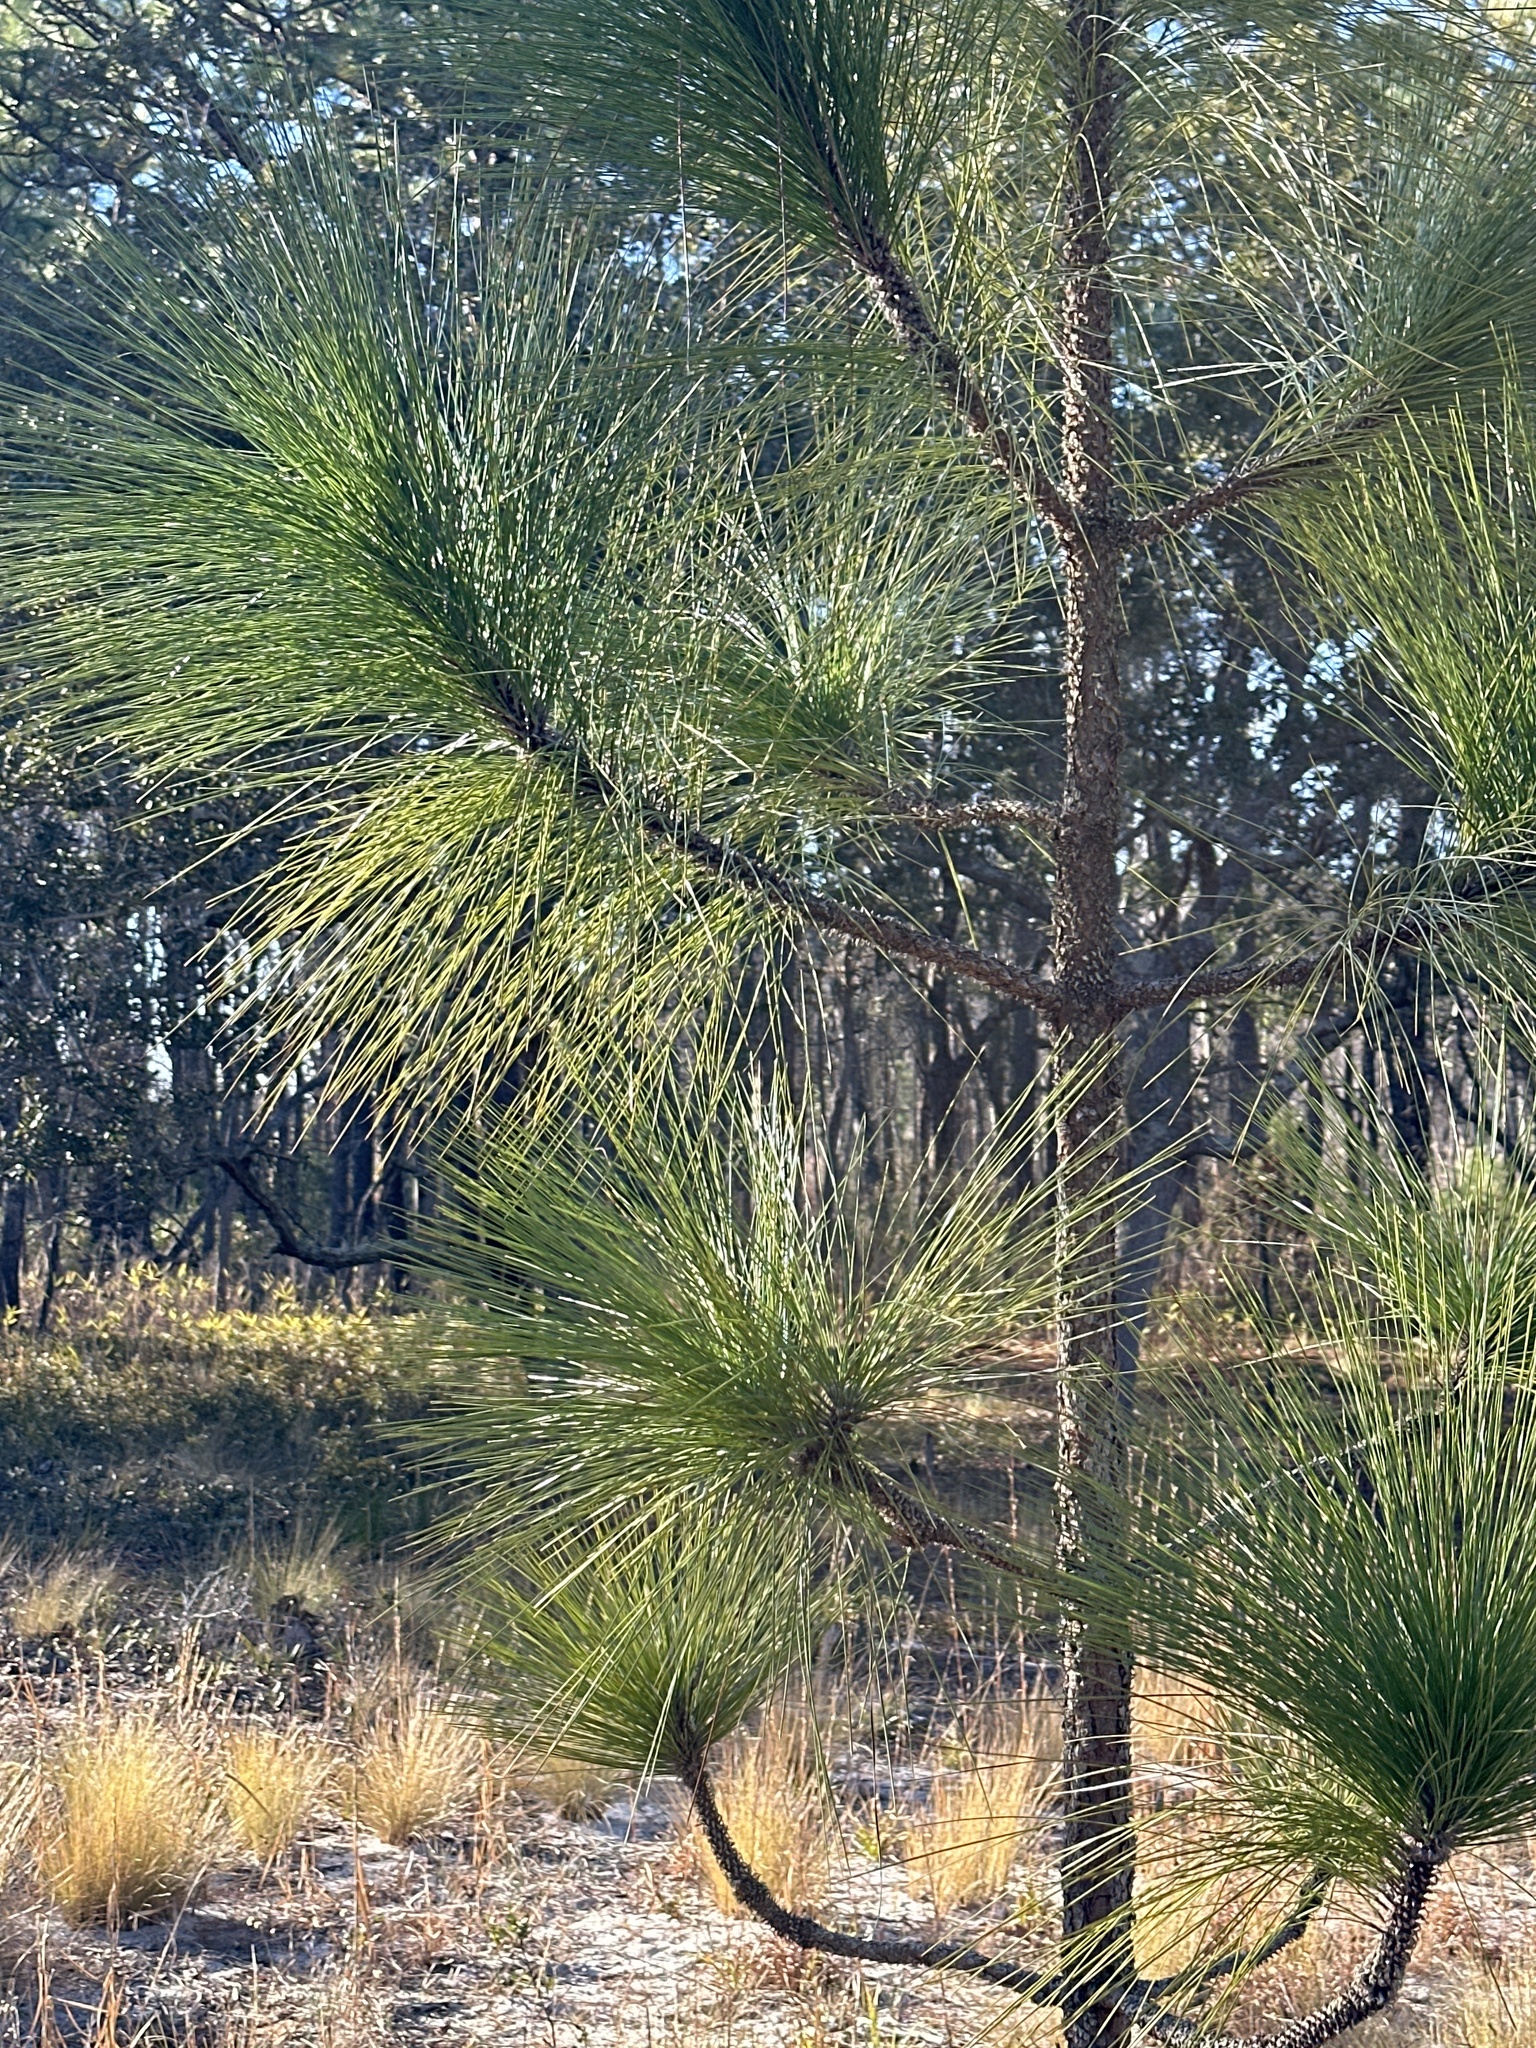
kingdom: Plantae
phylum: Tracheophyta
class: Pinopsida
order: Pinales
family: Pinaceae
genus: Pinus
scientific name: Pinus palustris
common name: Longleaf pine
